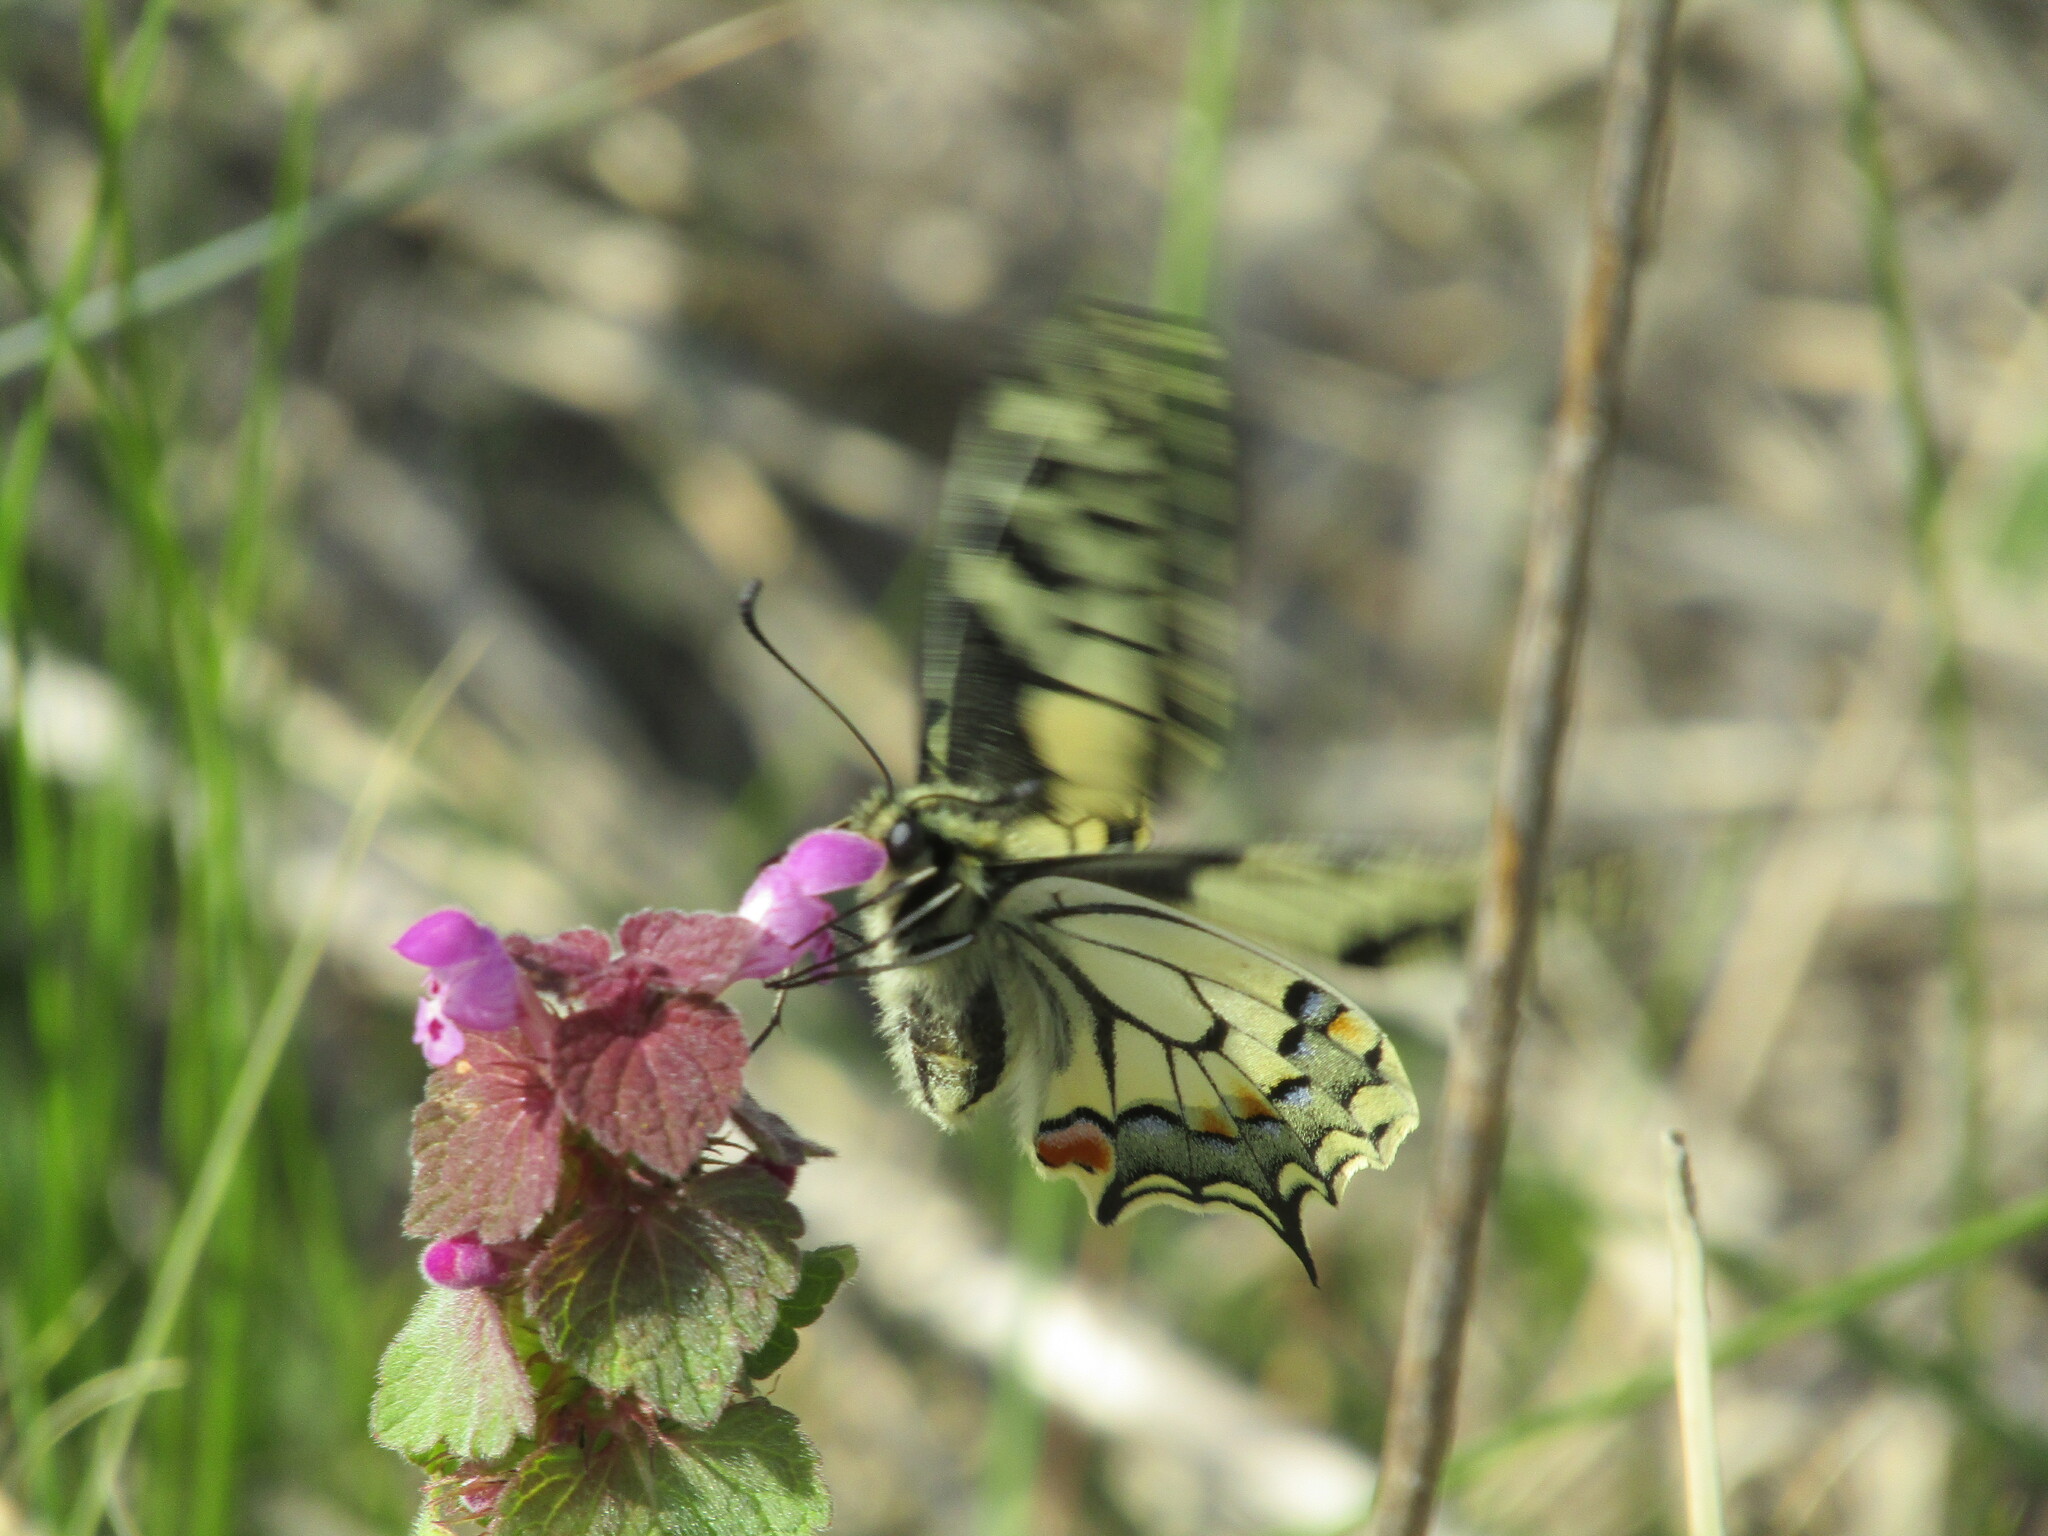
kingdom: Animalia
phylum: Arthropoda
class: Insecta
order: Lepidoptera
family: Papilionidae
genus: Papilio
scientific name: Papilio machaon
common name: Swallowtail
